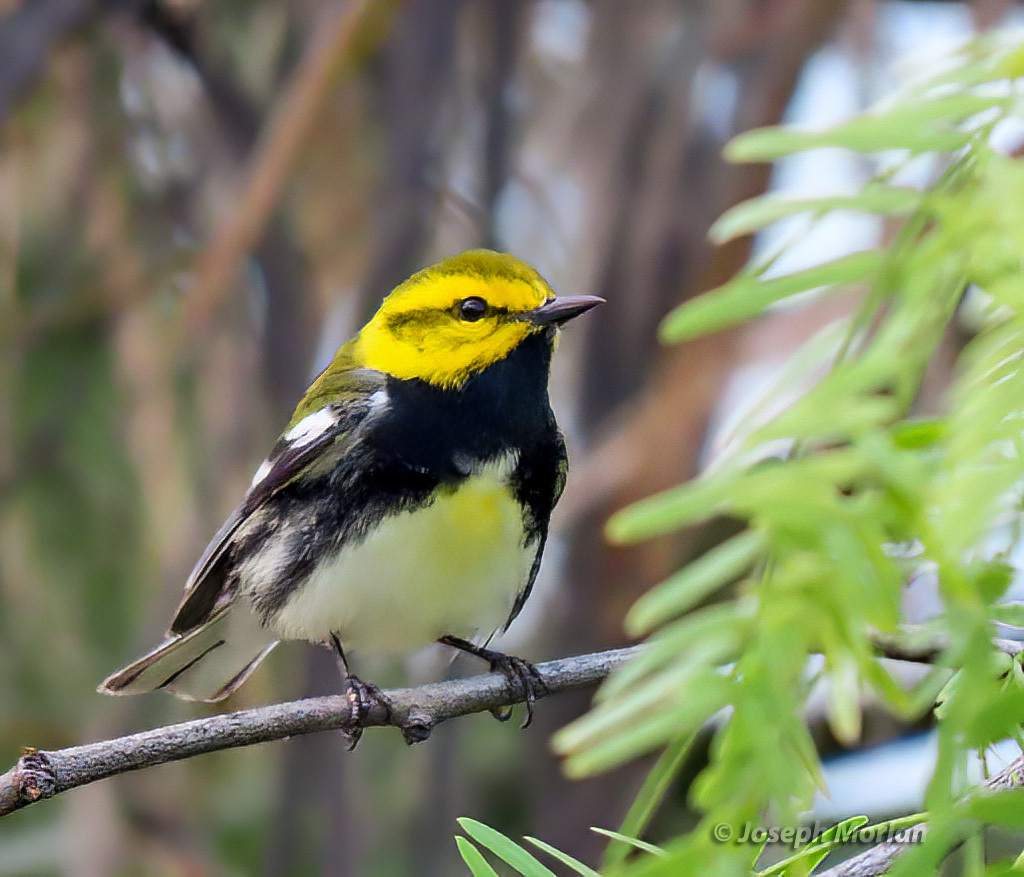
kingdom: Animalia
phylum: Chordata
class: Aves
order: Passeriformes
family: Parulidae
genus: Setophaga
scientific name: Setophaga virens
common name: Black-throated green warbler
